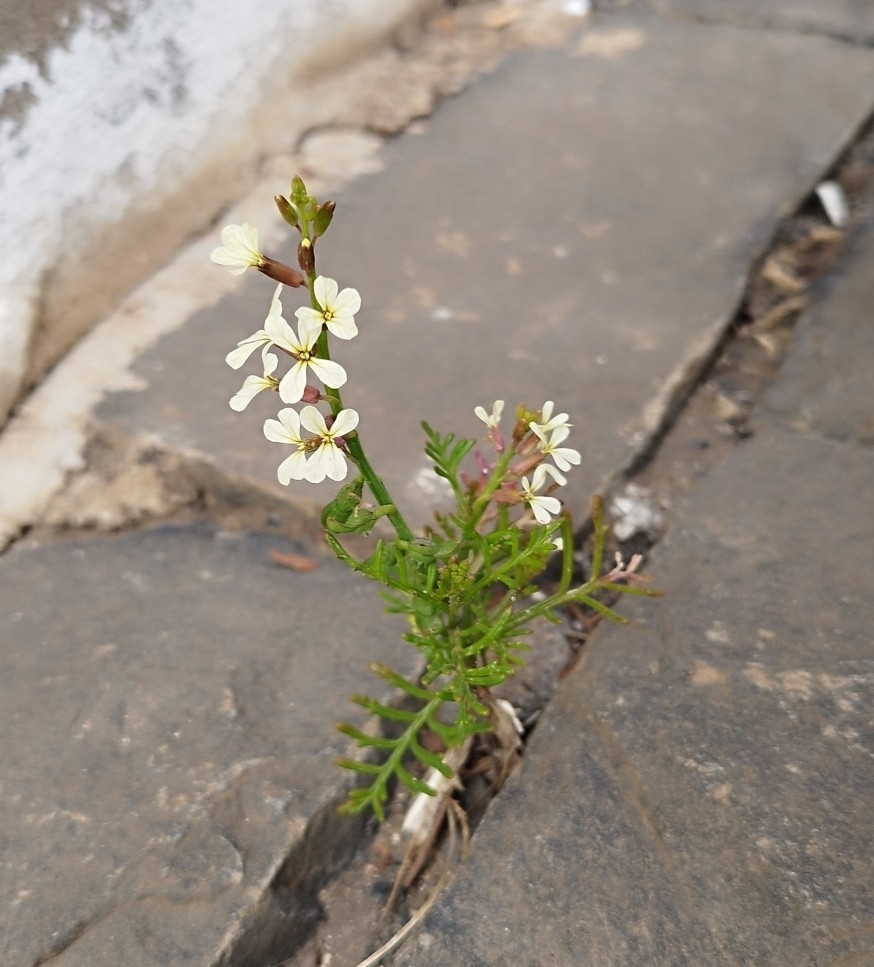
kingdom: Plantae
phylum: Tracheophyta
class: Magnoliopsida
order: Brassicales
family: Brassicaceae
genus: Carrichtera
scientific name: Carrichtera annua
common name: Cress rocket
